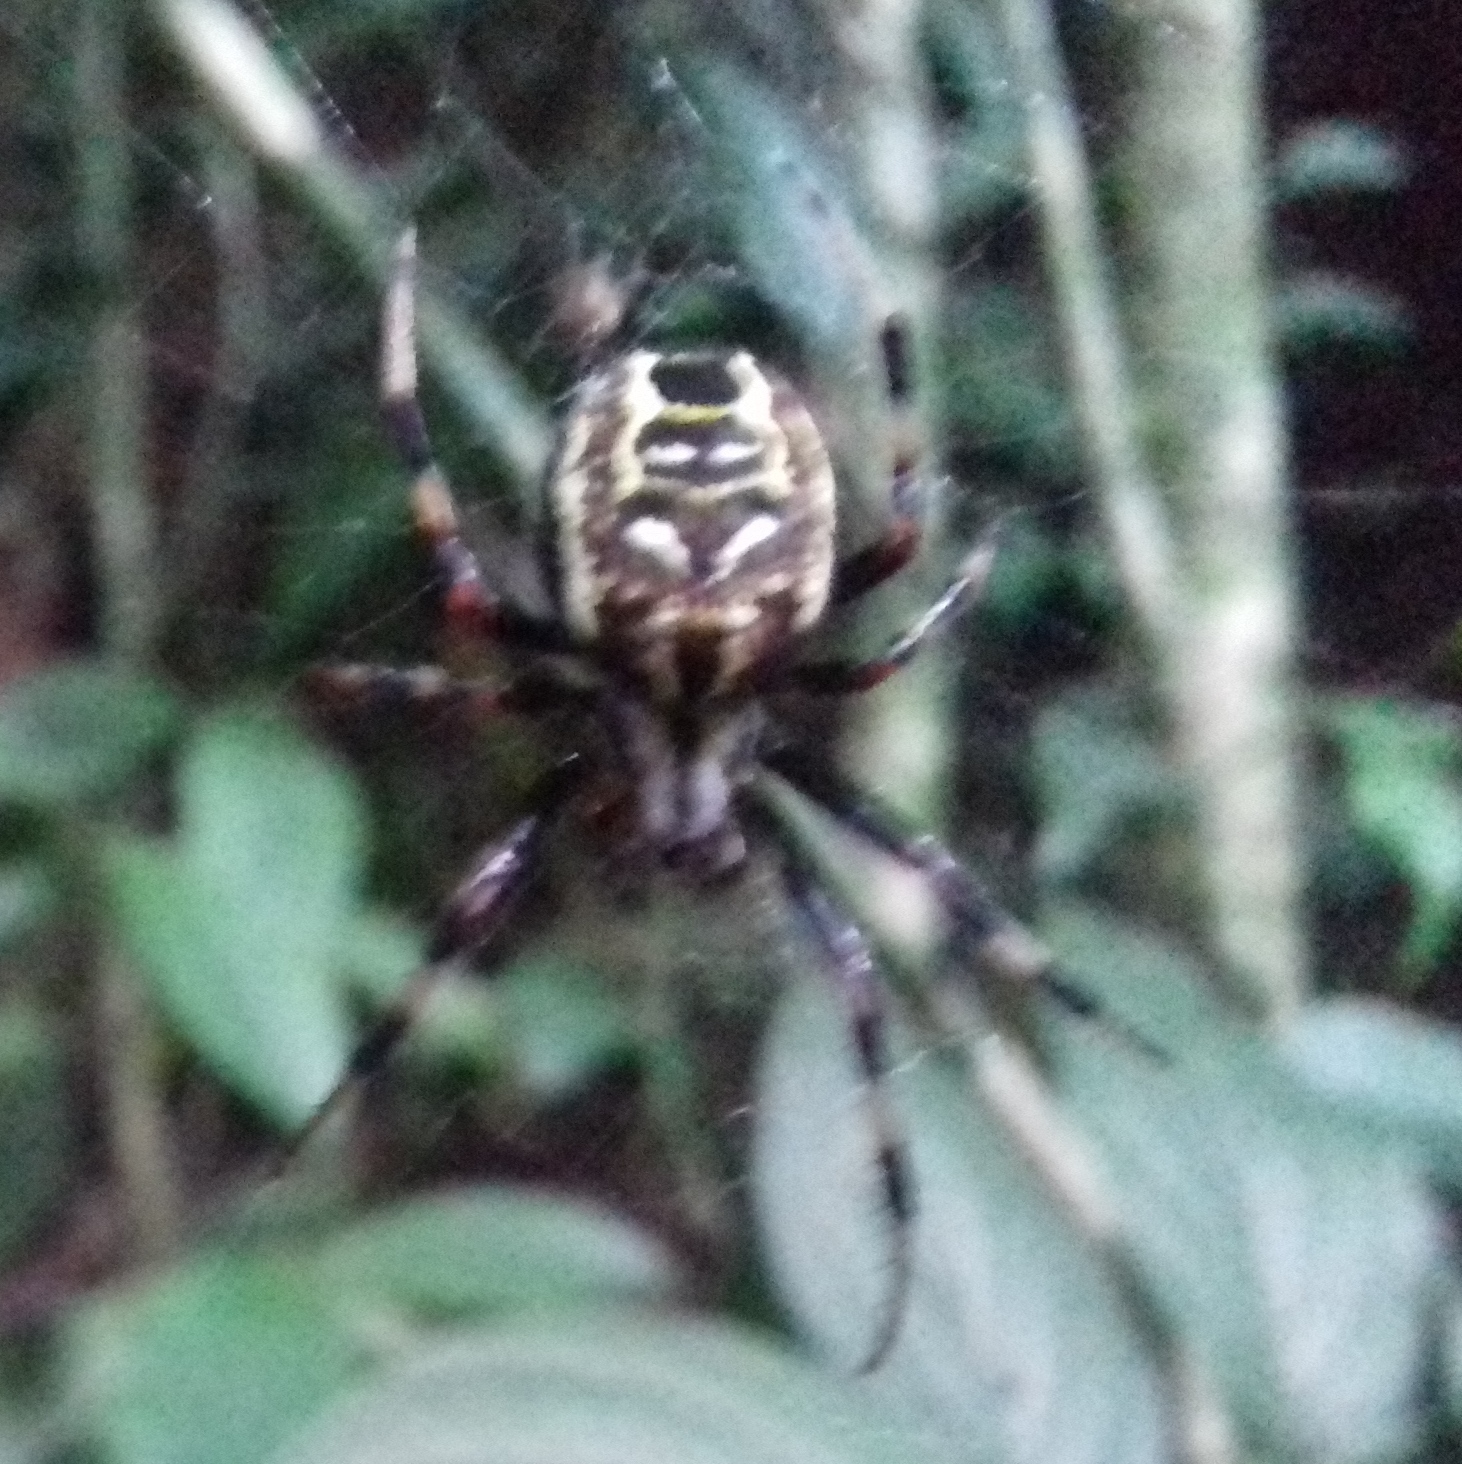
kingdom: Animalia
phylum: Arthropoda
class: Arachnida
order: Araneae
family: Araneidae
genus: Araneus
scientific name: Araneus venatrix
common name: Orb weavers
